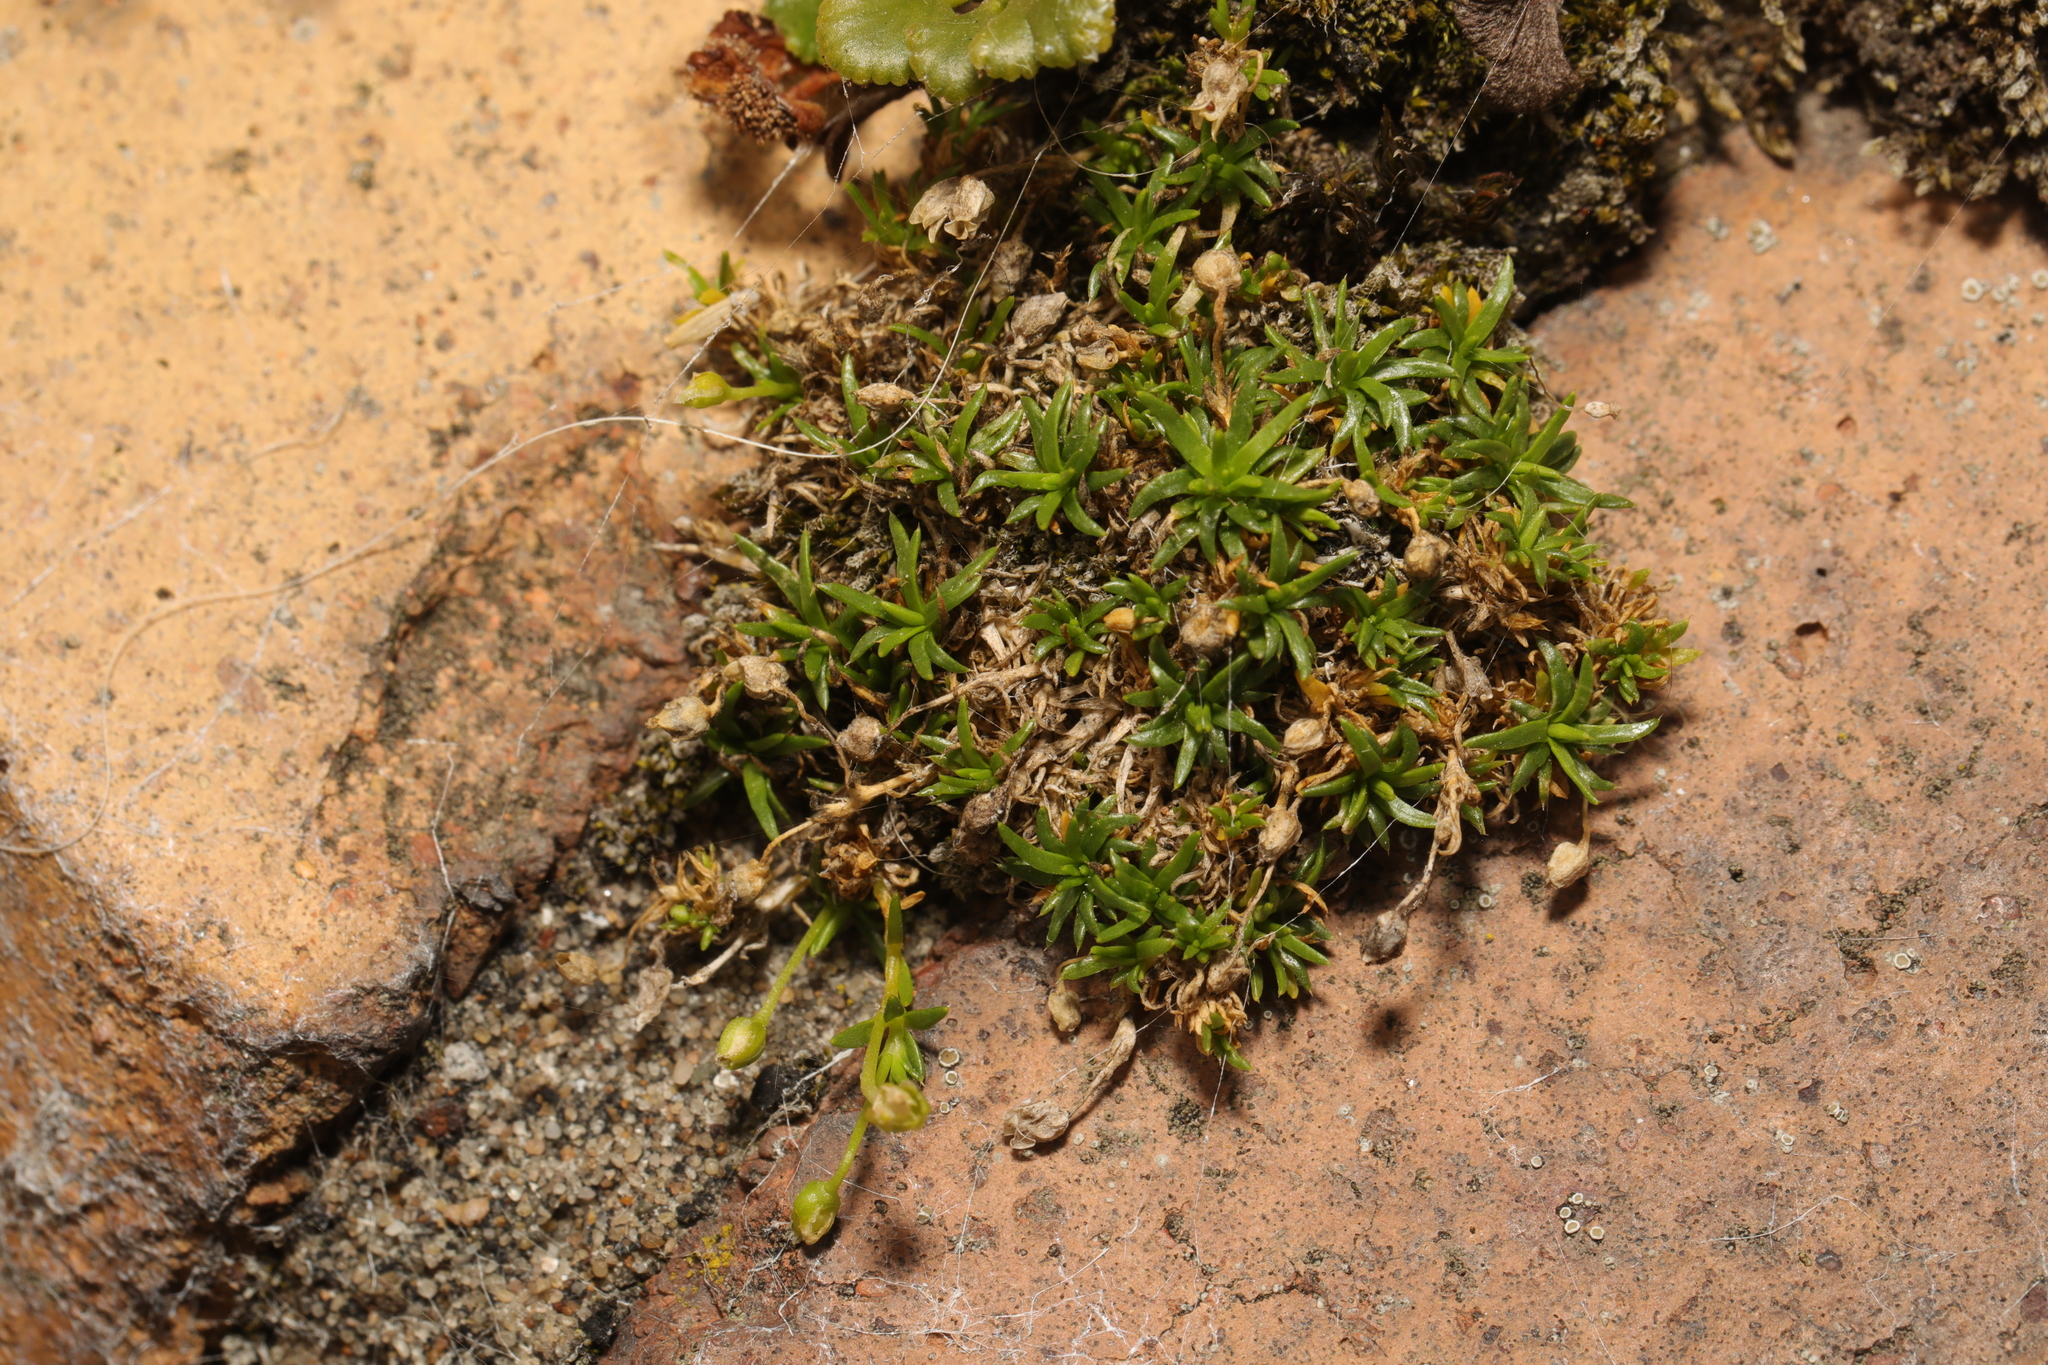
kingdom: Plantae
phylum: Tracheophyta
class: Magnoliopsida
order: Caryophyllales
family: Caryophyllaceae
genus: Sagina
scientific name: Sagina procumbens
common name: Procumbent pearlwort
